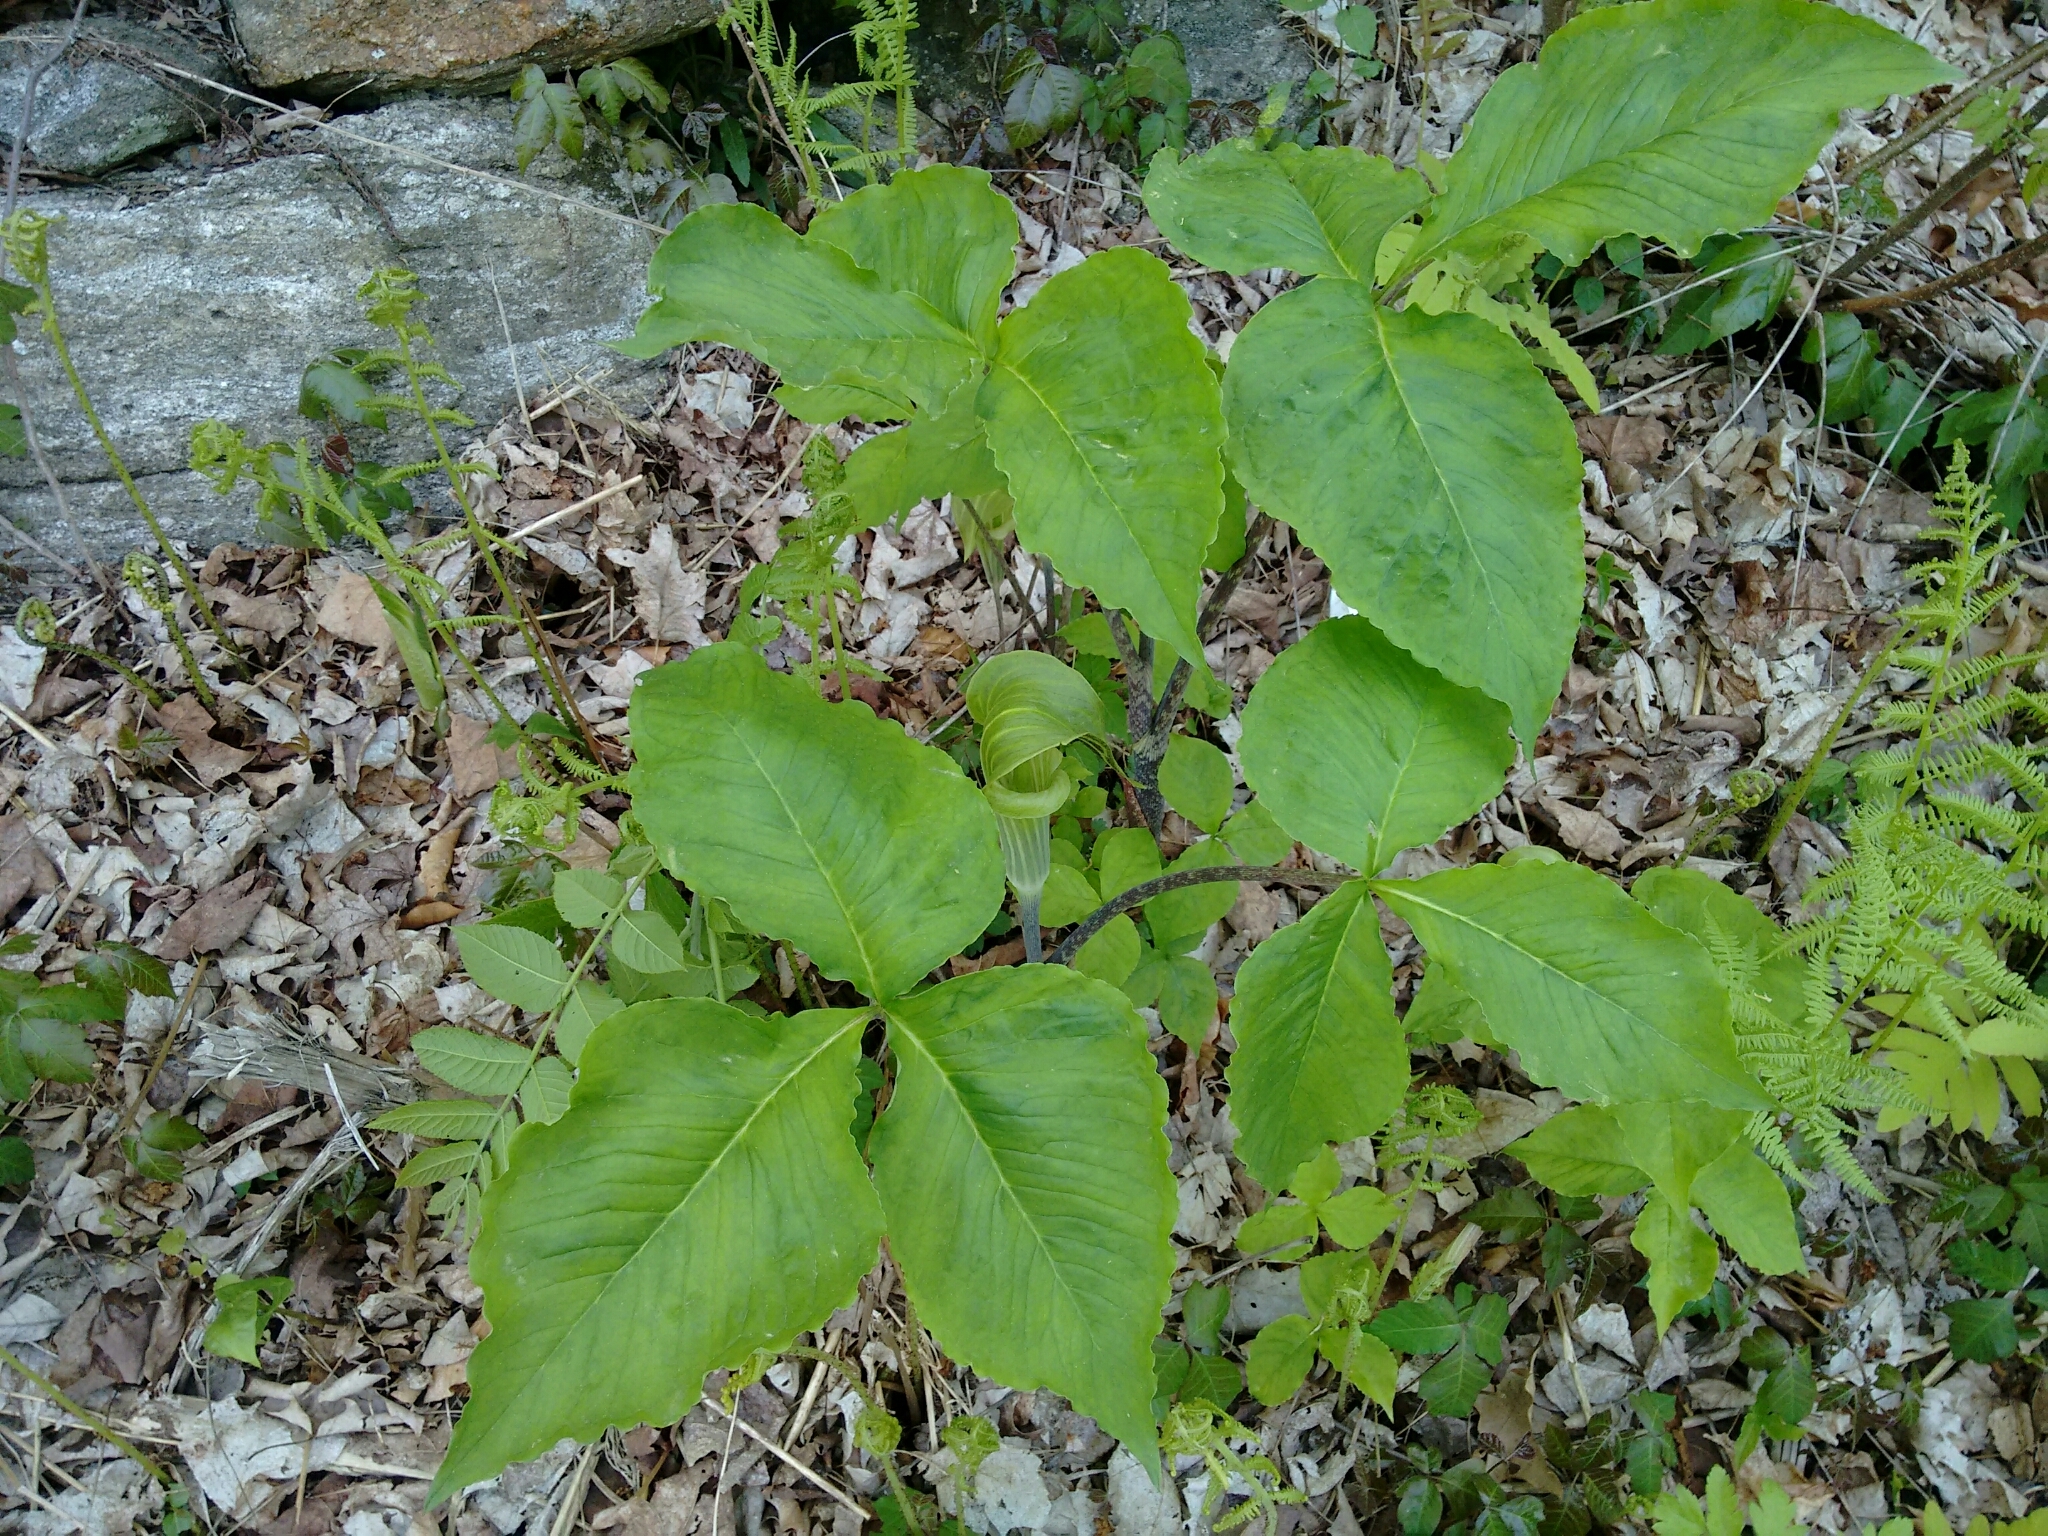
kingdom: Plantae
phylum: Tracheophyta
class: Liliopsida
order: Alismatales
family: Araceae
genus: Arisaema
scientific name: Arisaema triphyllum
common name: Jack-in-the-pulpit
